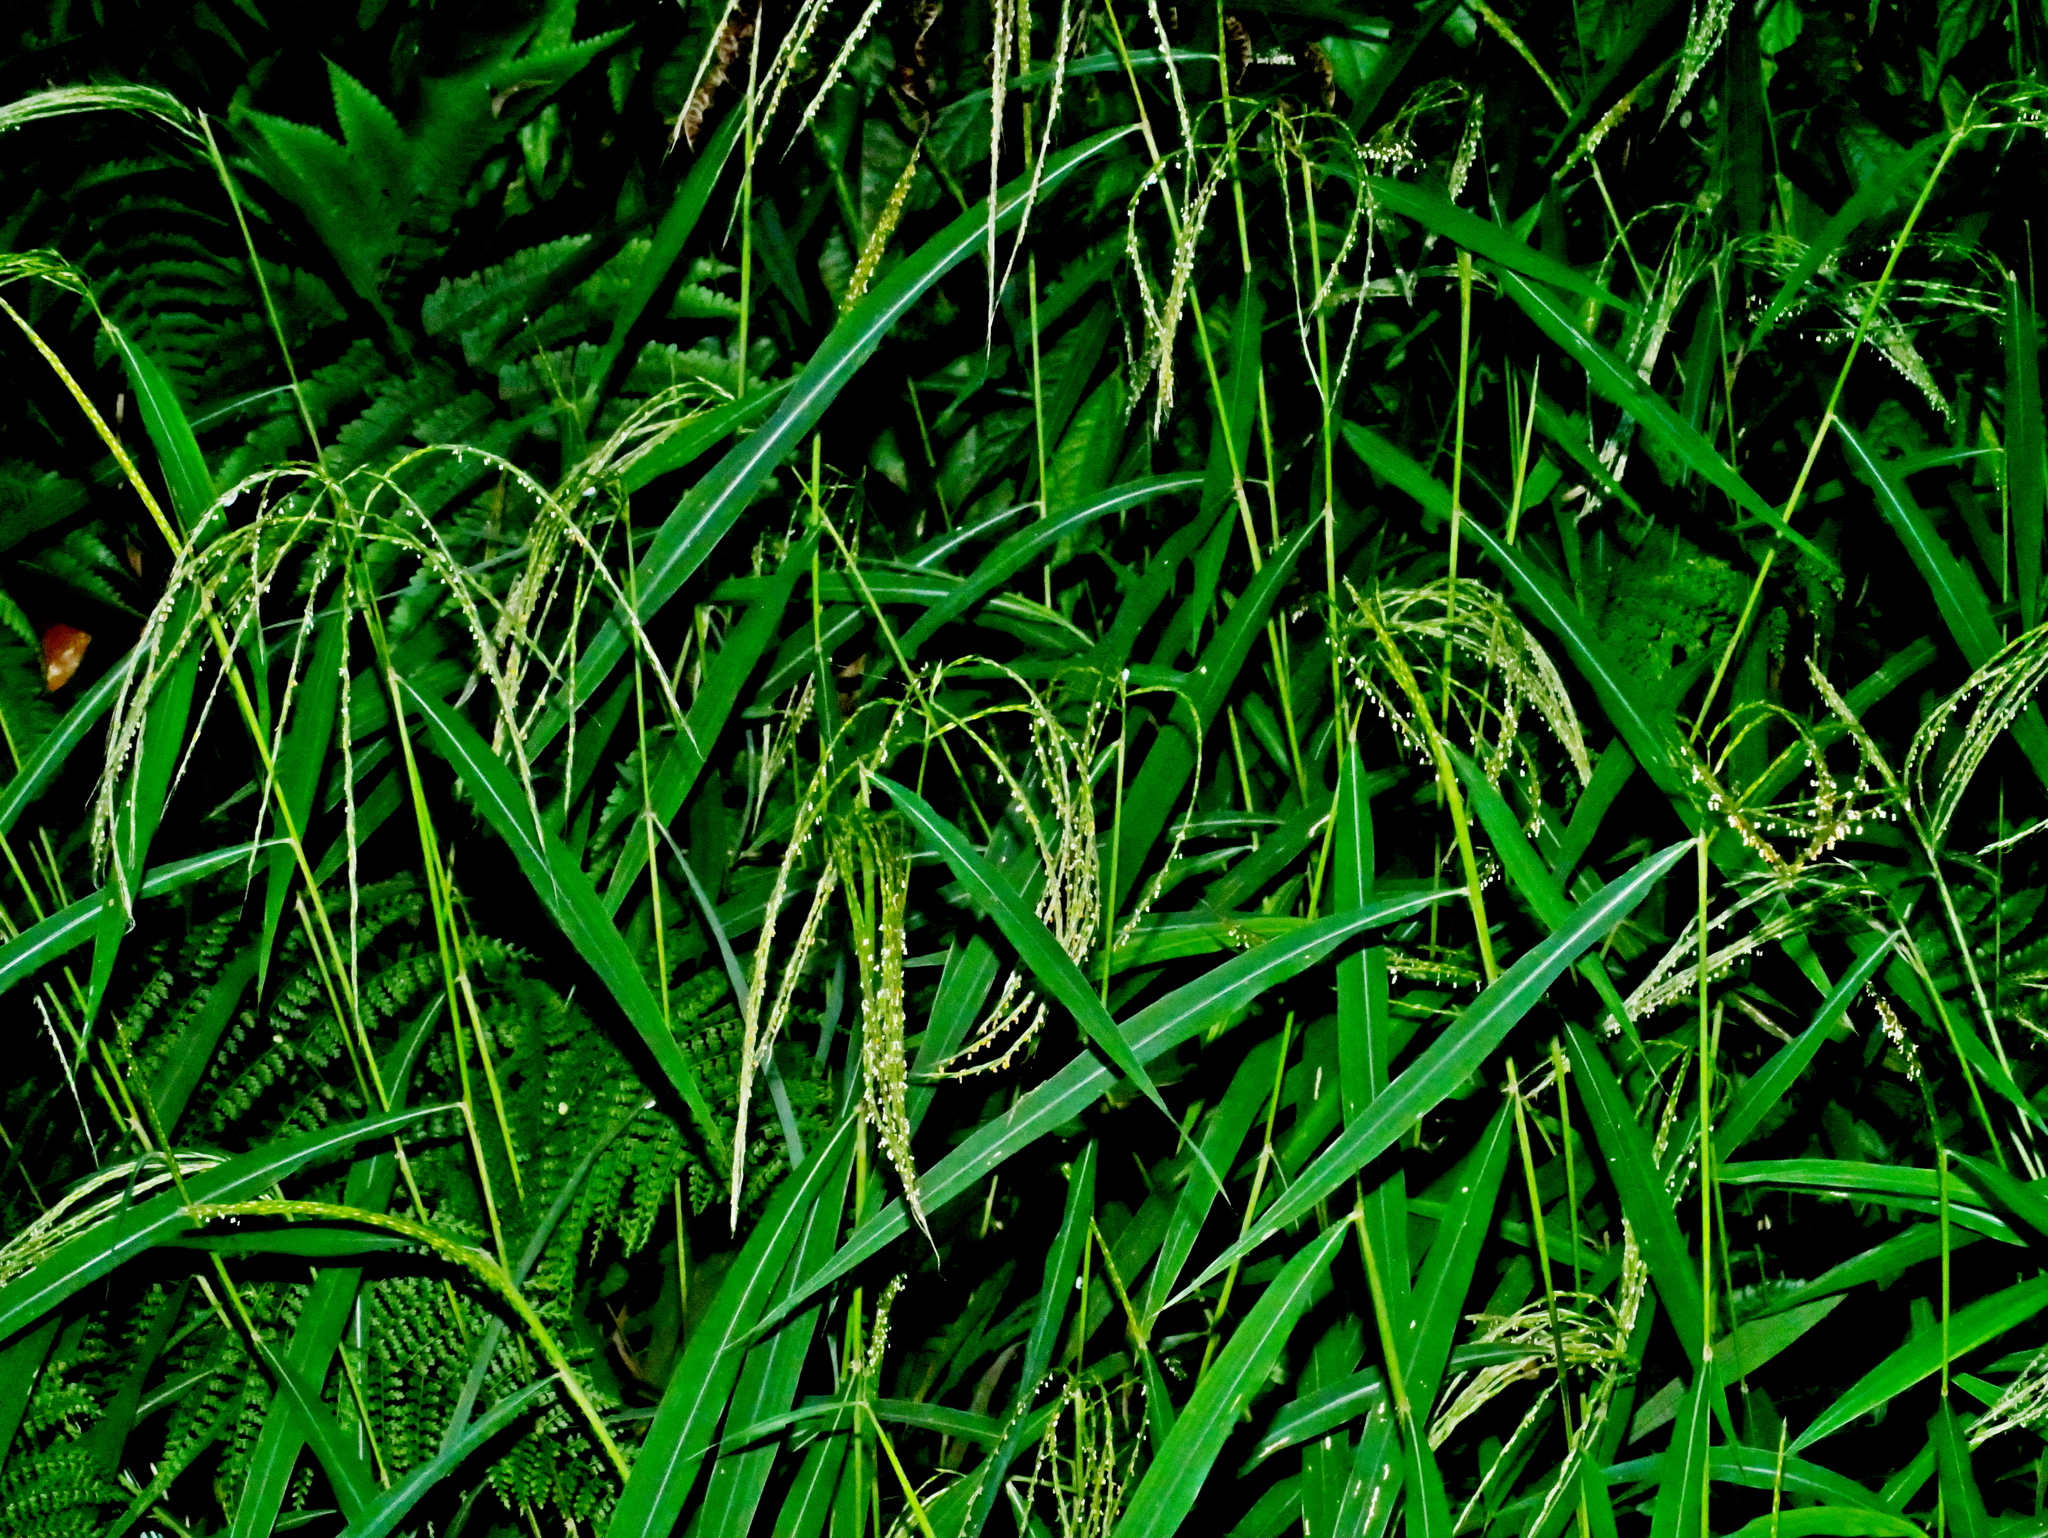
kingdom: Plantae
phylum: Tracheophyta
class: Liliopsida
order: Poales
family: Poaceae
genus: Microstegium
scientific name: Microstegium geniculatum
